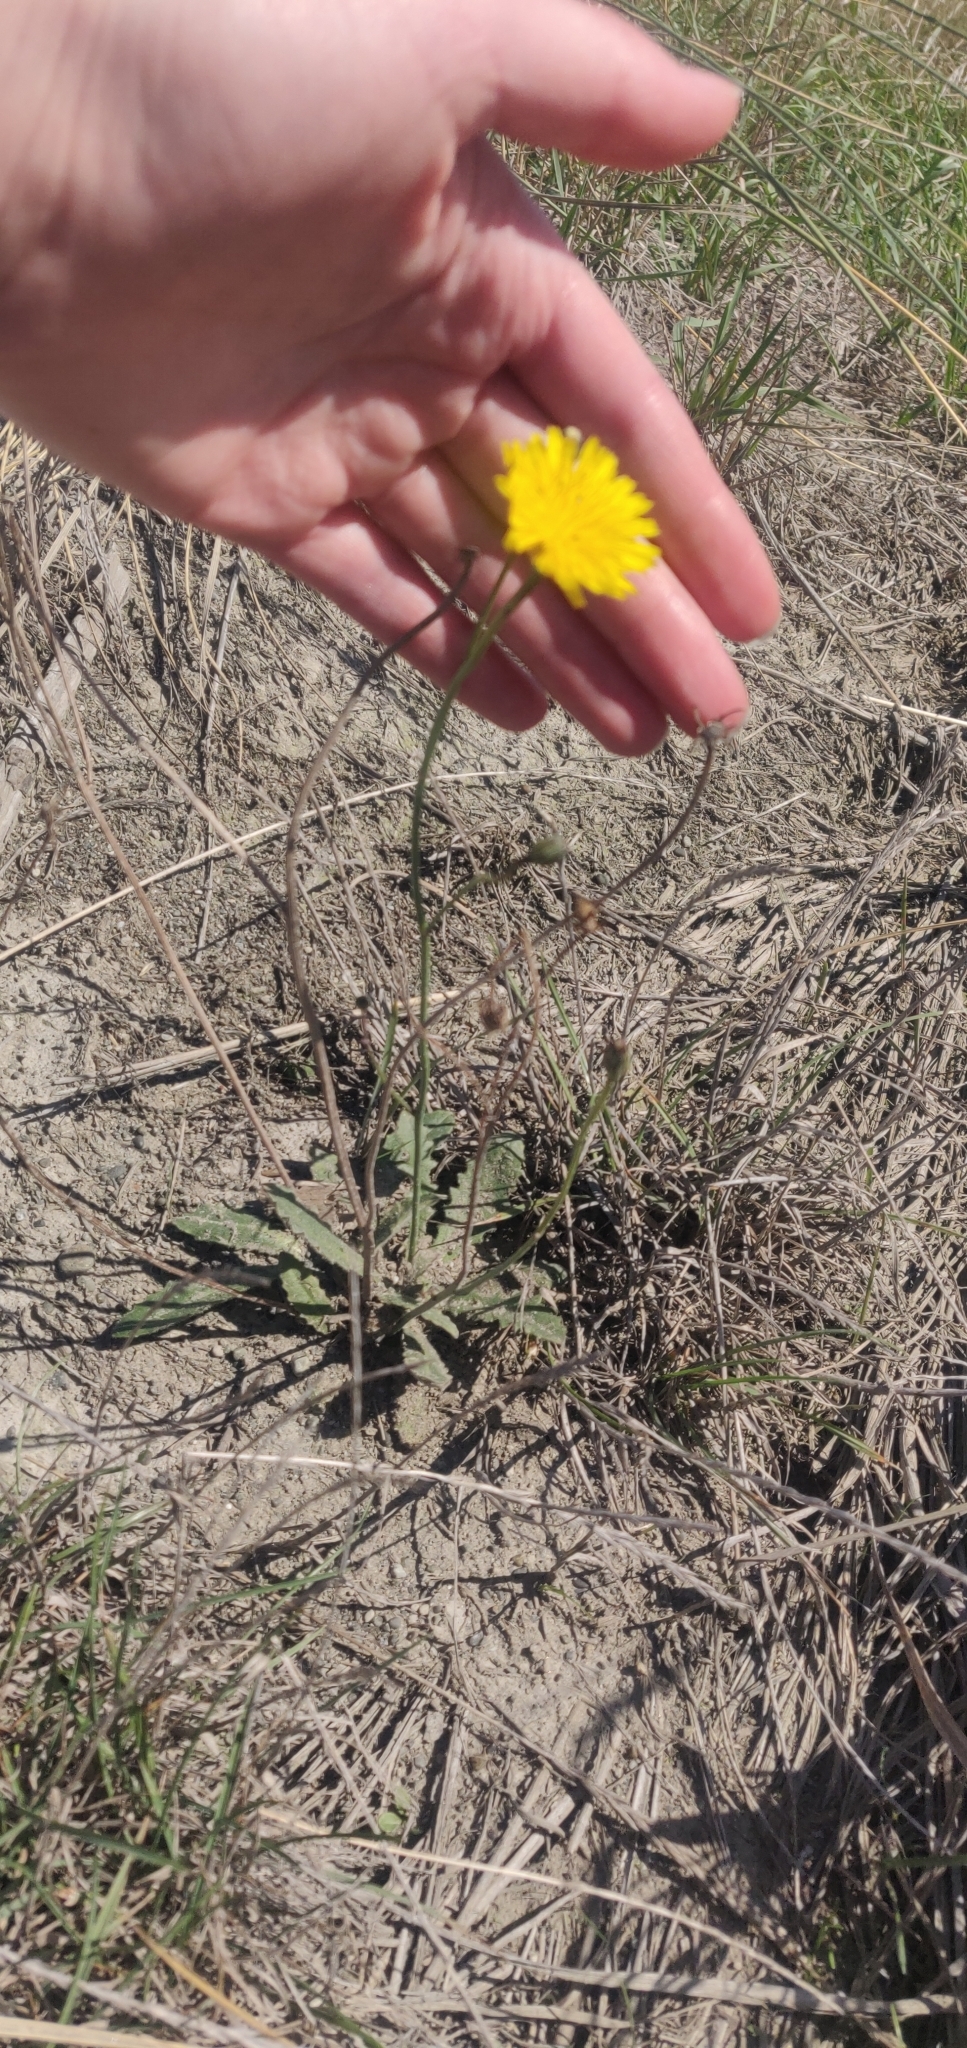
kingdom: Plantae
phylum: Tracheophyta
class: Magnoliopsida
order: Asterales
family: Asteraceae
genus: Hypochaeris
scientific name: Hypochaeris radicata
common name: Flatweed
